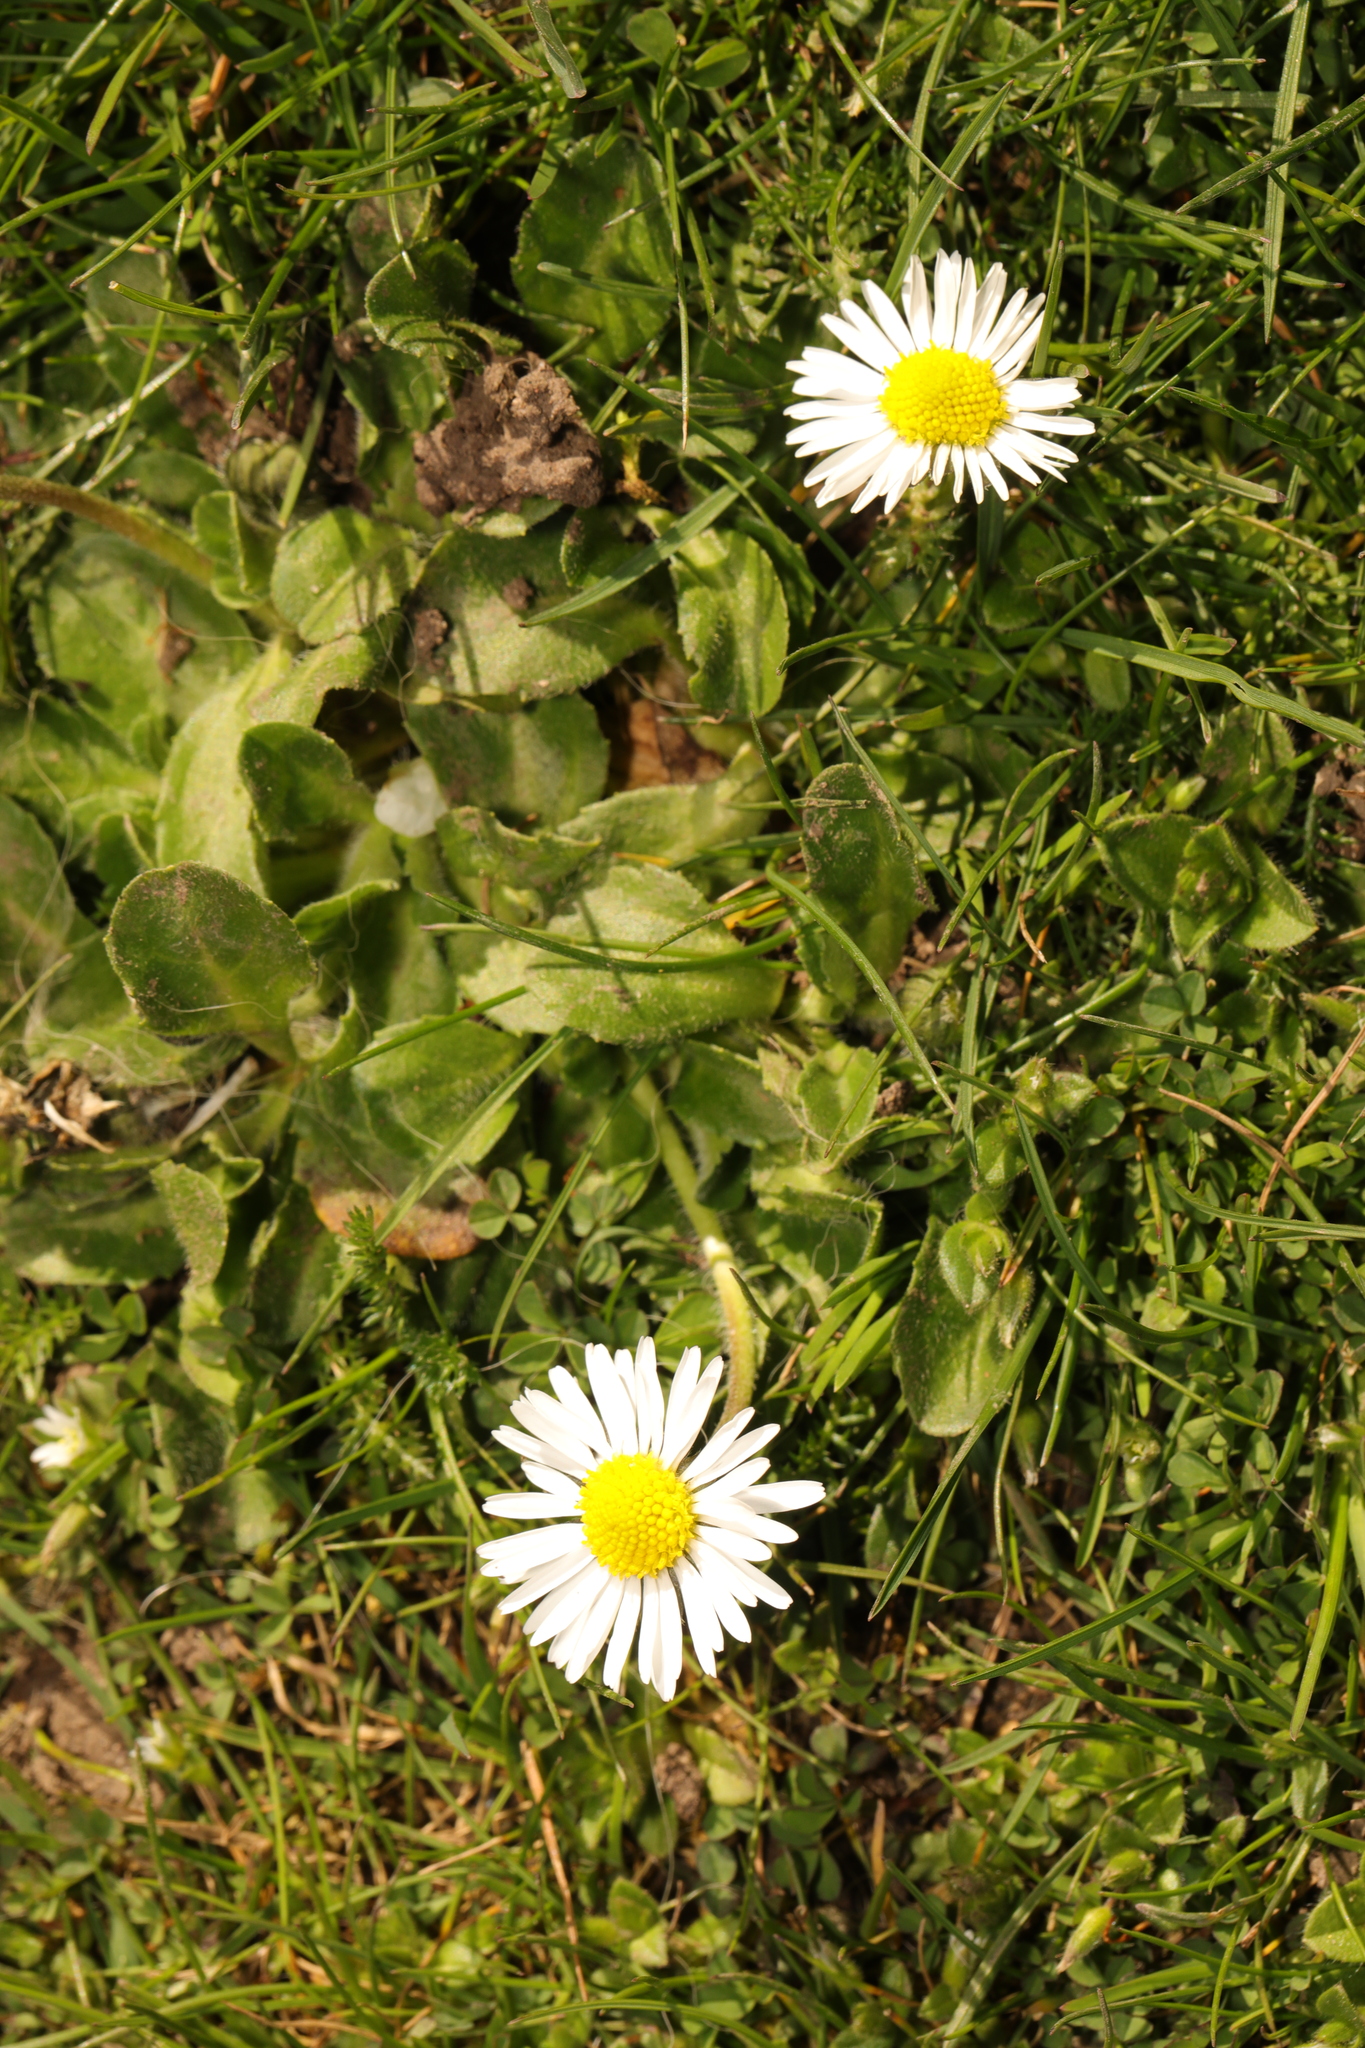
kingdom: Plantae
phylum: Tracheophyta
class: Magnoliopsida
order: Asterales
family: Asteraceae
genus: Bellis
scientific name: Bellis perennis
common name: Lawndaisy
